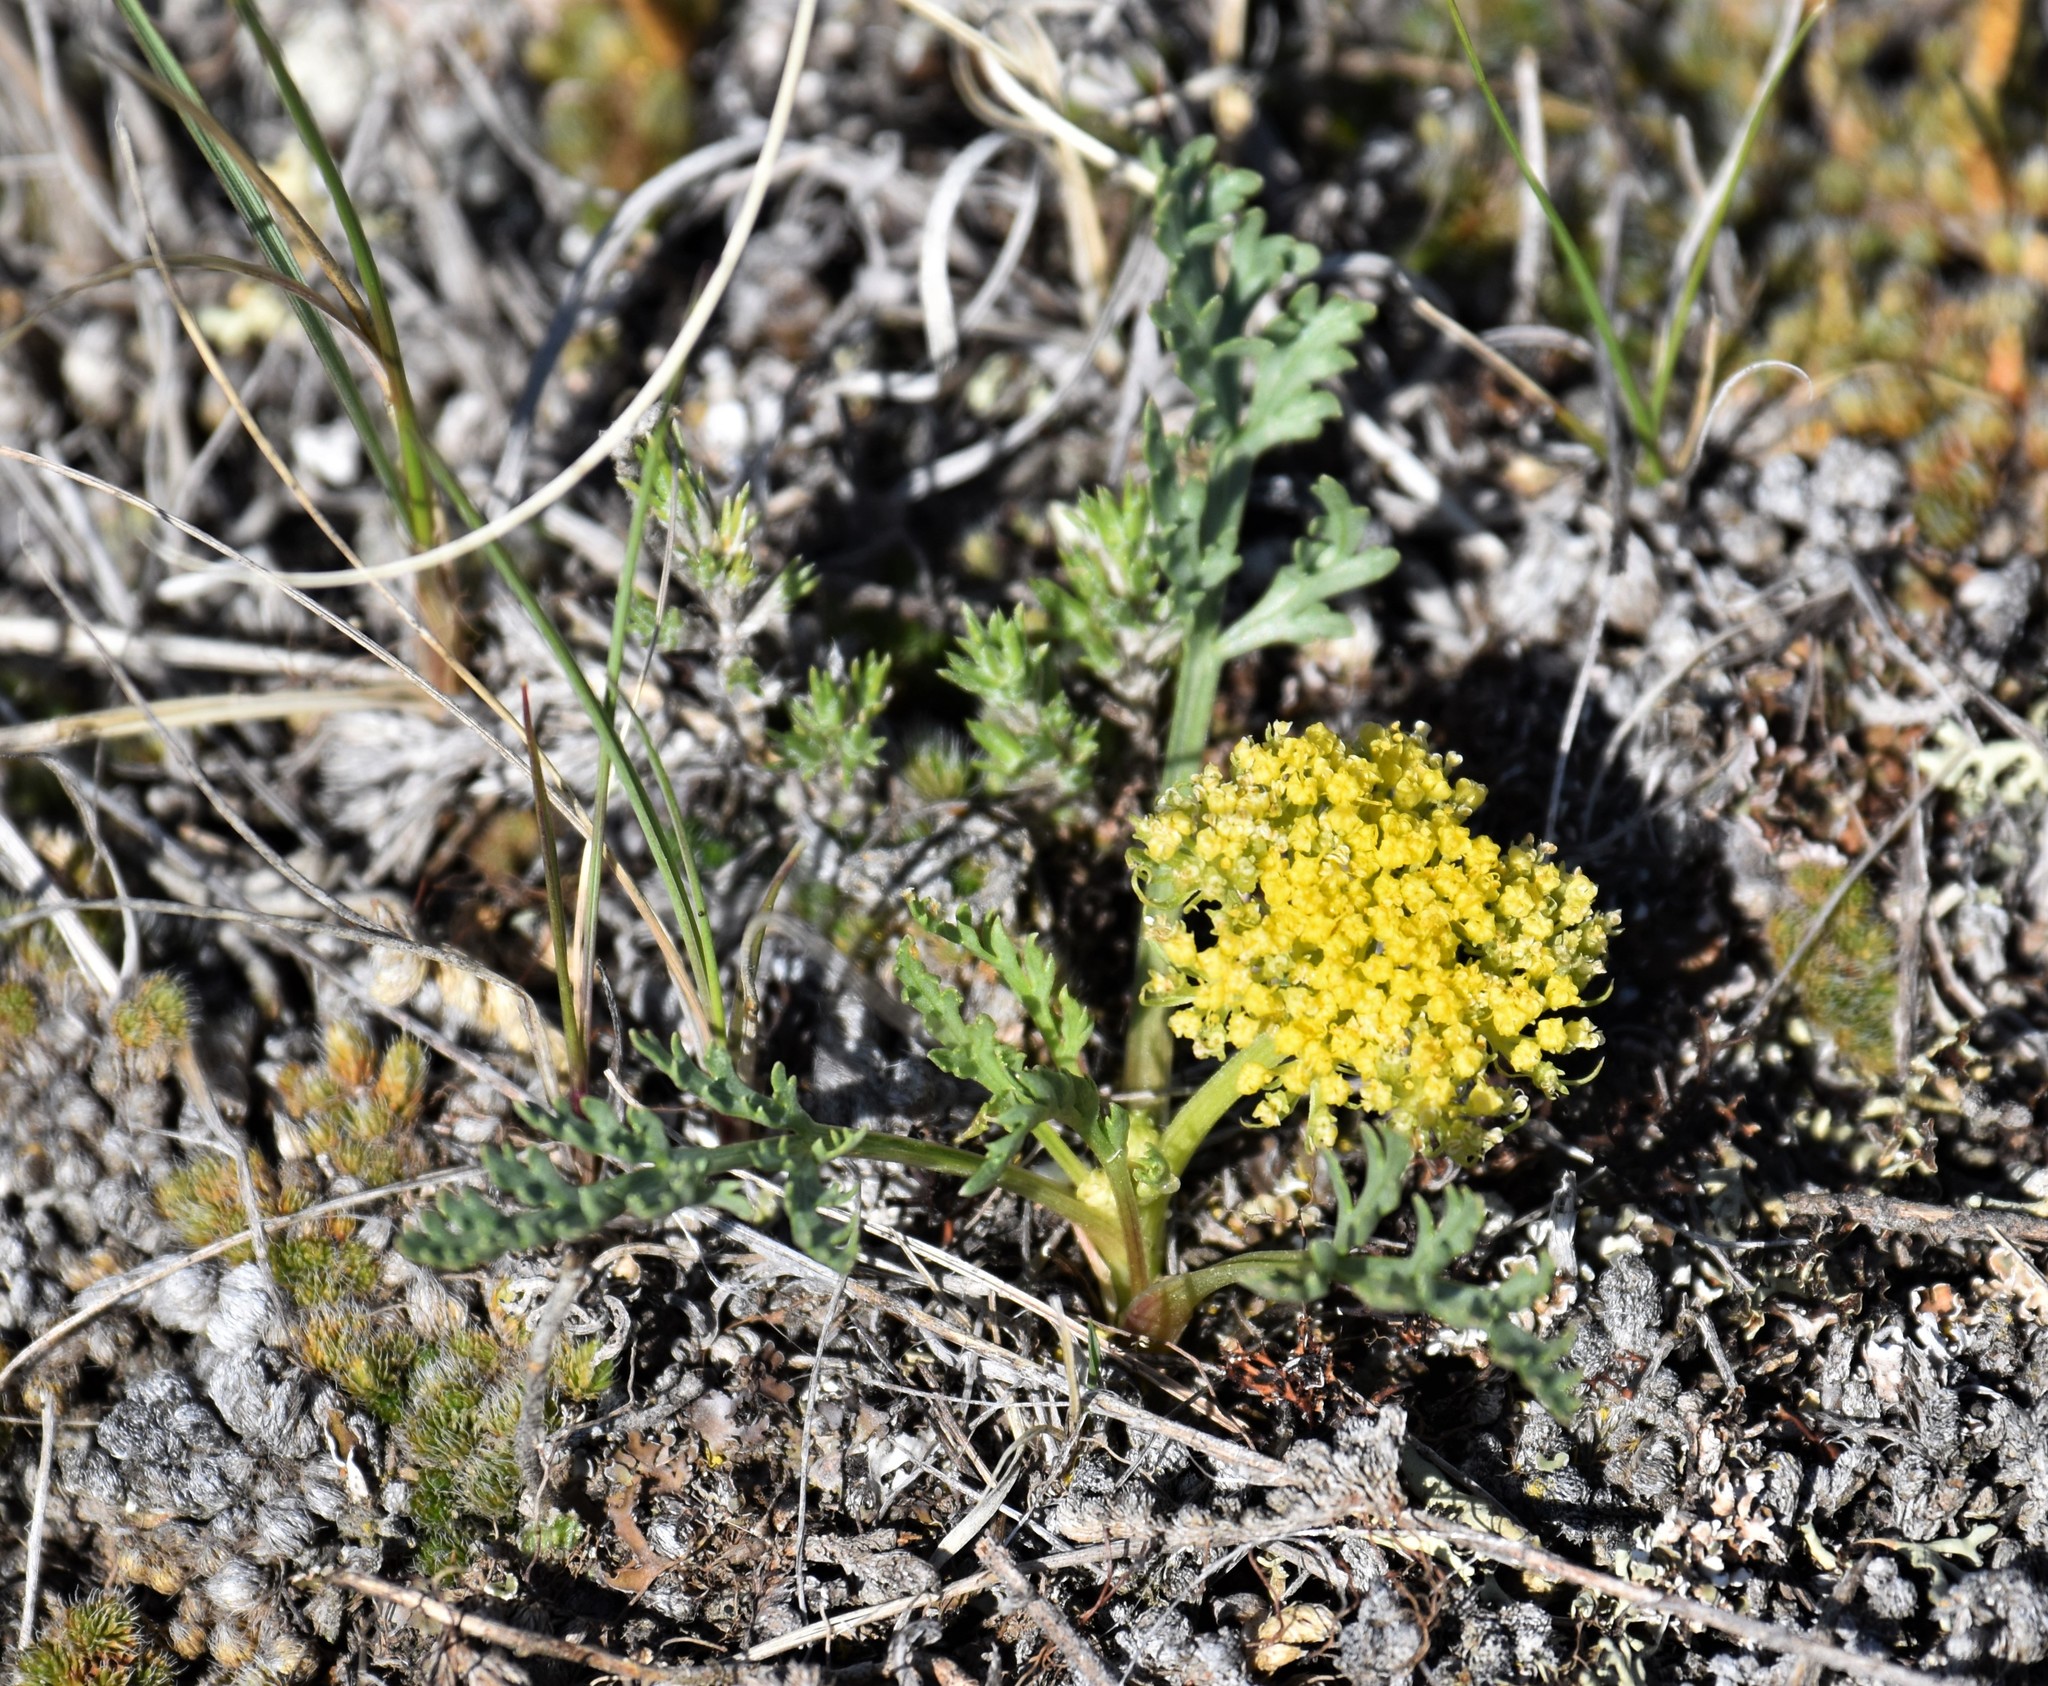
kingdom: Plantae
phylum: Tracheophyta
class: Magnoliopsida
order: Apiales
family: Apiaceae
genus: Musineon
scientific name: Musineon divaricatum
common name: Plains musineon
